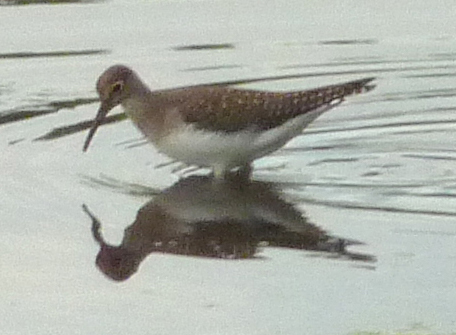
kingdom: Animalia
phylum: Chordata
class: Aves
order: Charadriiformes
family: Scolopacidae
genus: Tringa
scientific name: Tringa solitaria
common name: Solitary sandpiper
